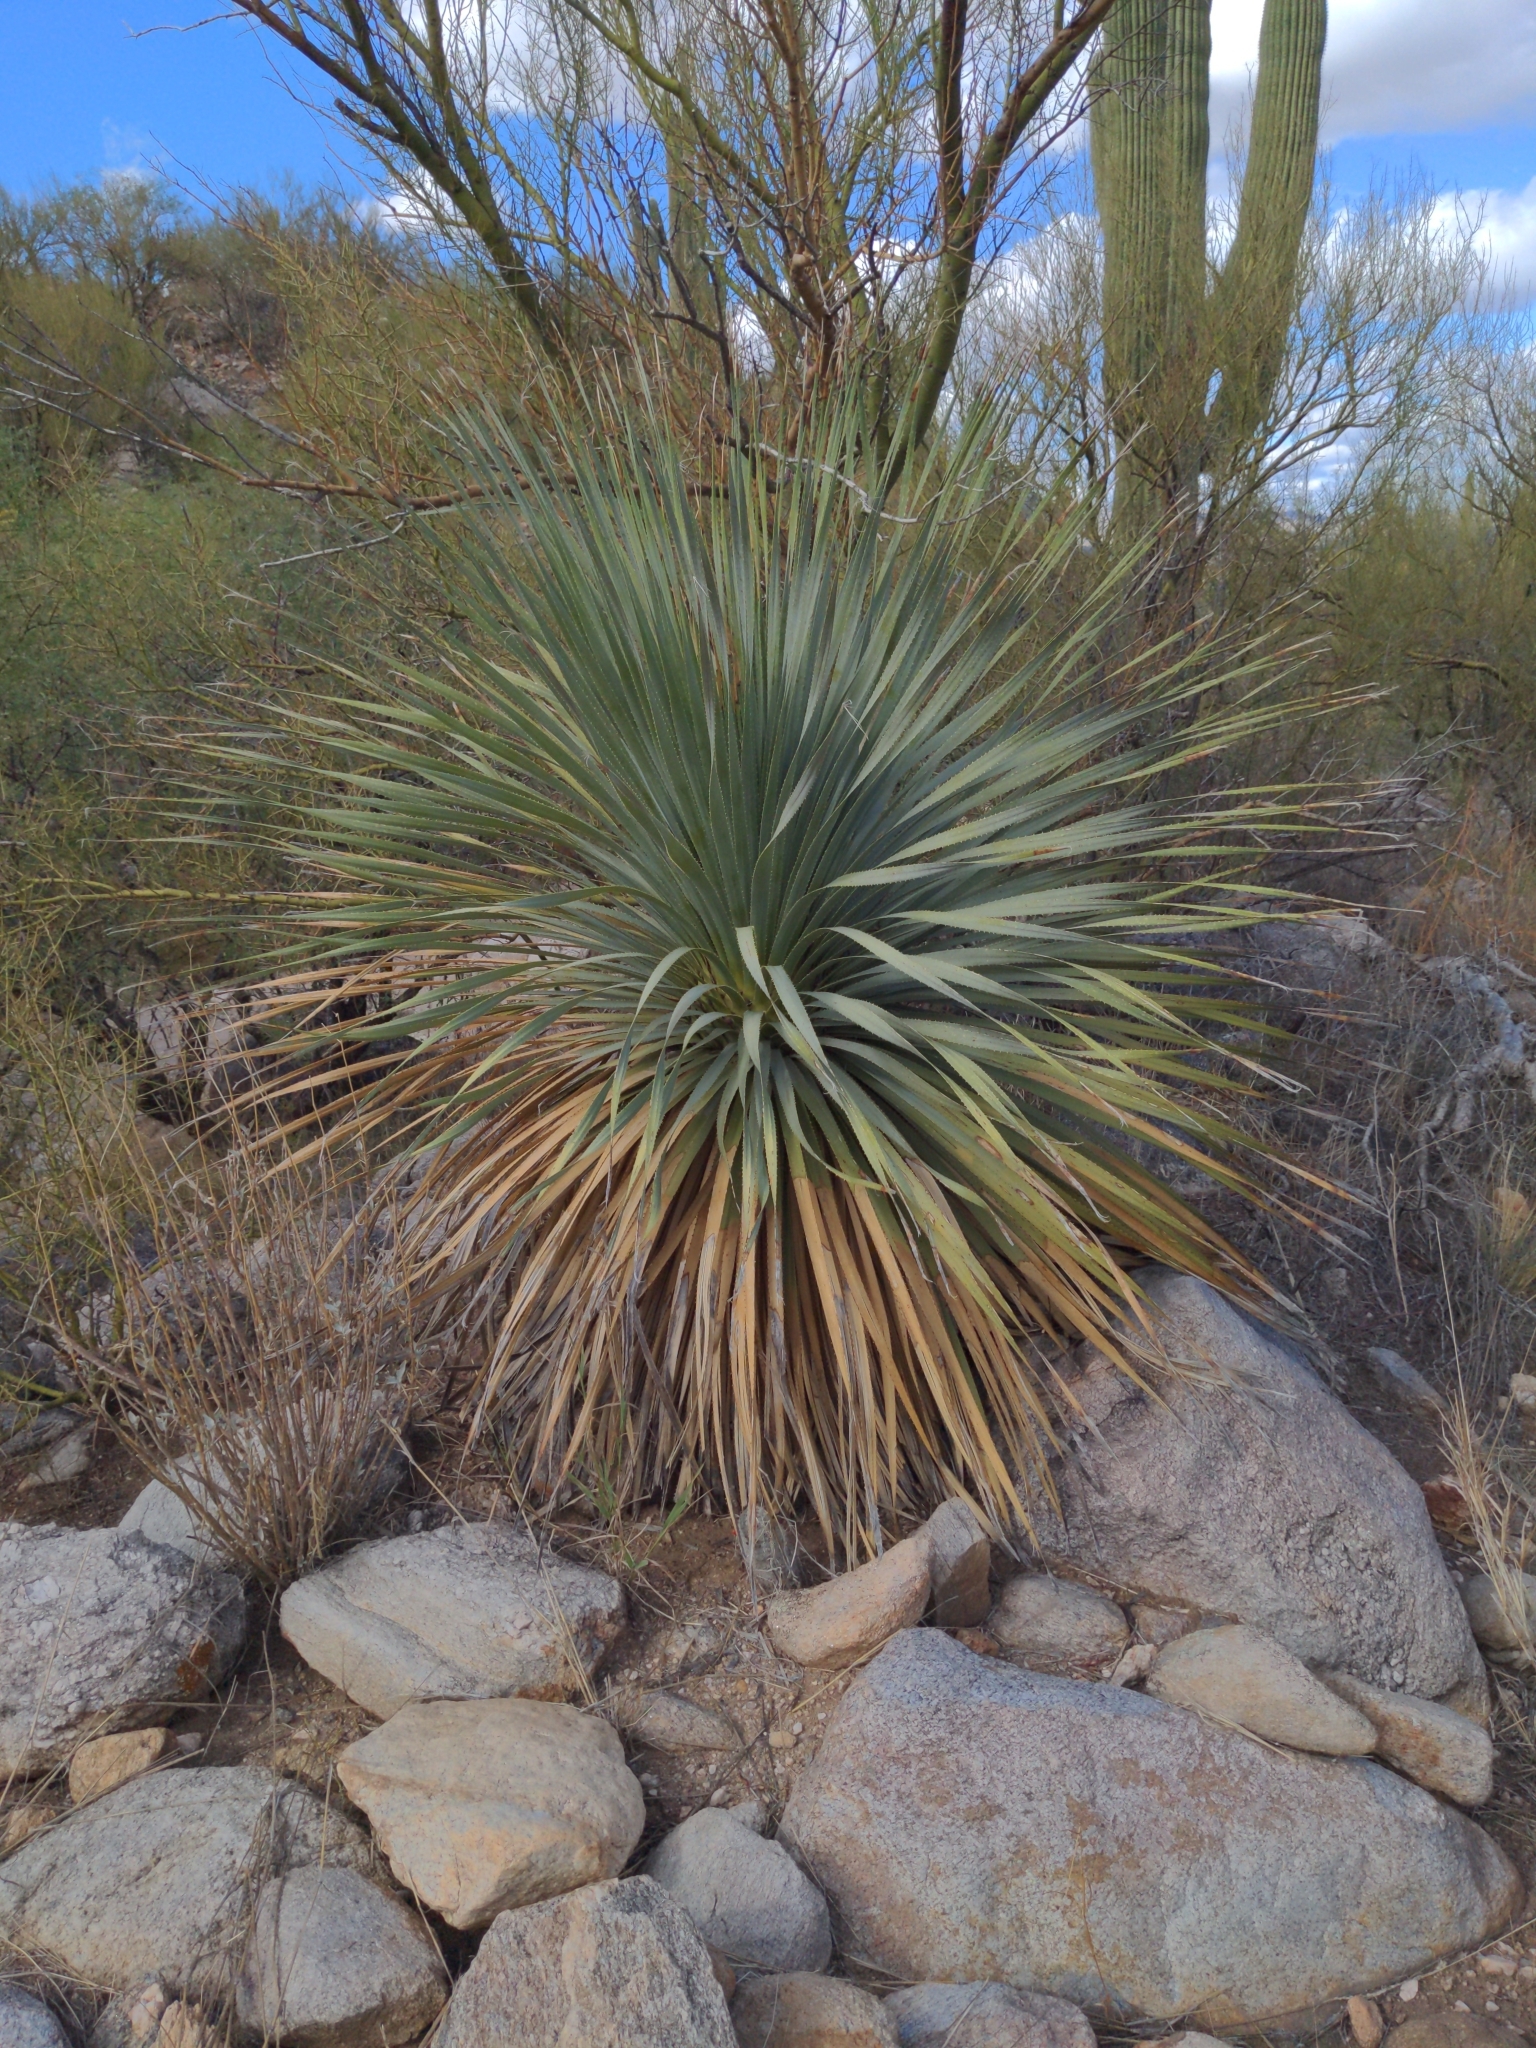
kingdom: Plantae
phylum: Tracheophyta
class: Liliopsida
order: Asparagales
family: Asparagaceae
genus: Dasylirion
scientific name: Dasylirion wheeleri
